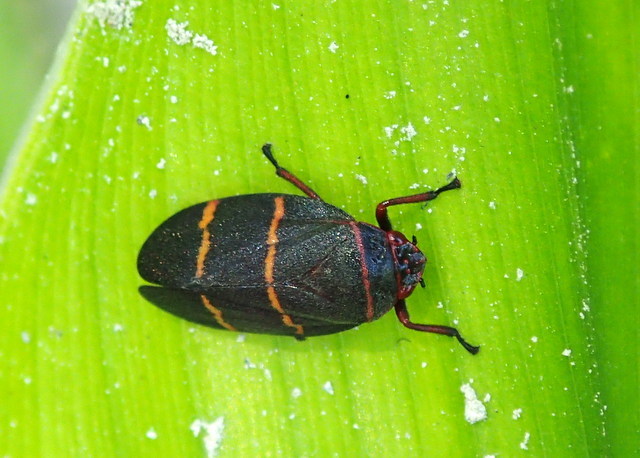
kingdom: Animalia
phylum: Arthropoda
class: Insecta
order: Hemiptera
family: Cercopidae
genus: Prosapia
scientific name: Prosapia bicincta
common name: Twolined spittlebug
